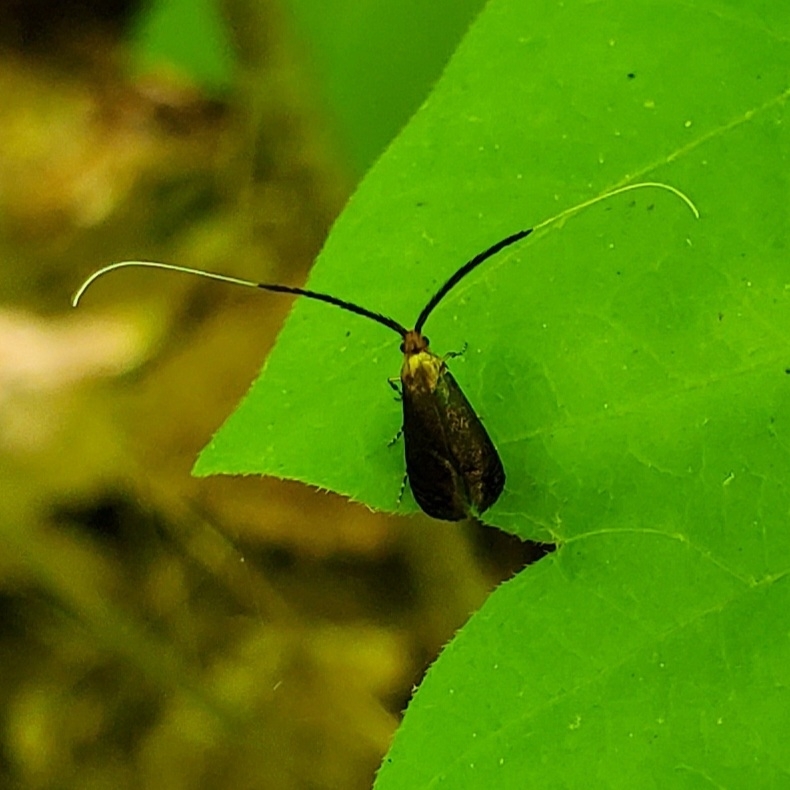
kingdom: Animalia
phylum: Arthropoda
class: Insecta
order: Lepidoptera
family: Adelidae
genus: Adela
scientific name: Adela caeruleella
